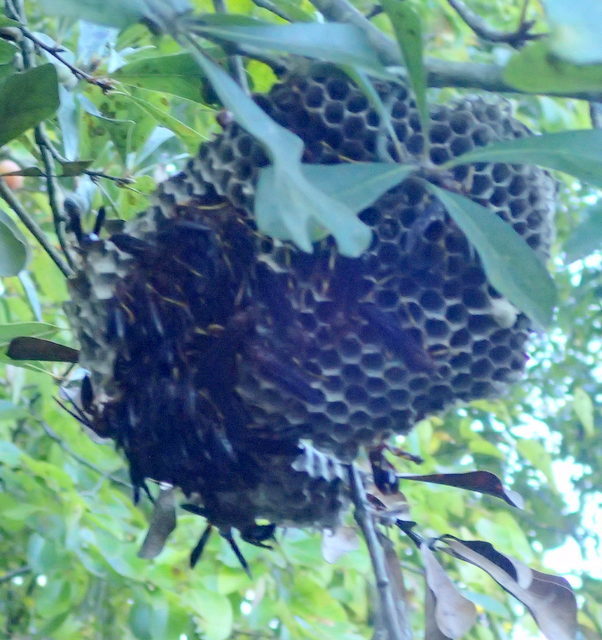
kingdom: Animalia
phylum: Arthropoda
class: Insecta
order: Hymenoptera
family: Eumenidae
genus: Polistes
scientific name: Polistes annularis
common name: Ringed paper wasp
